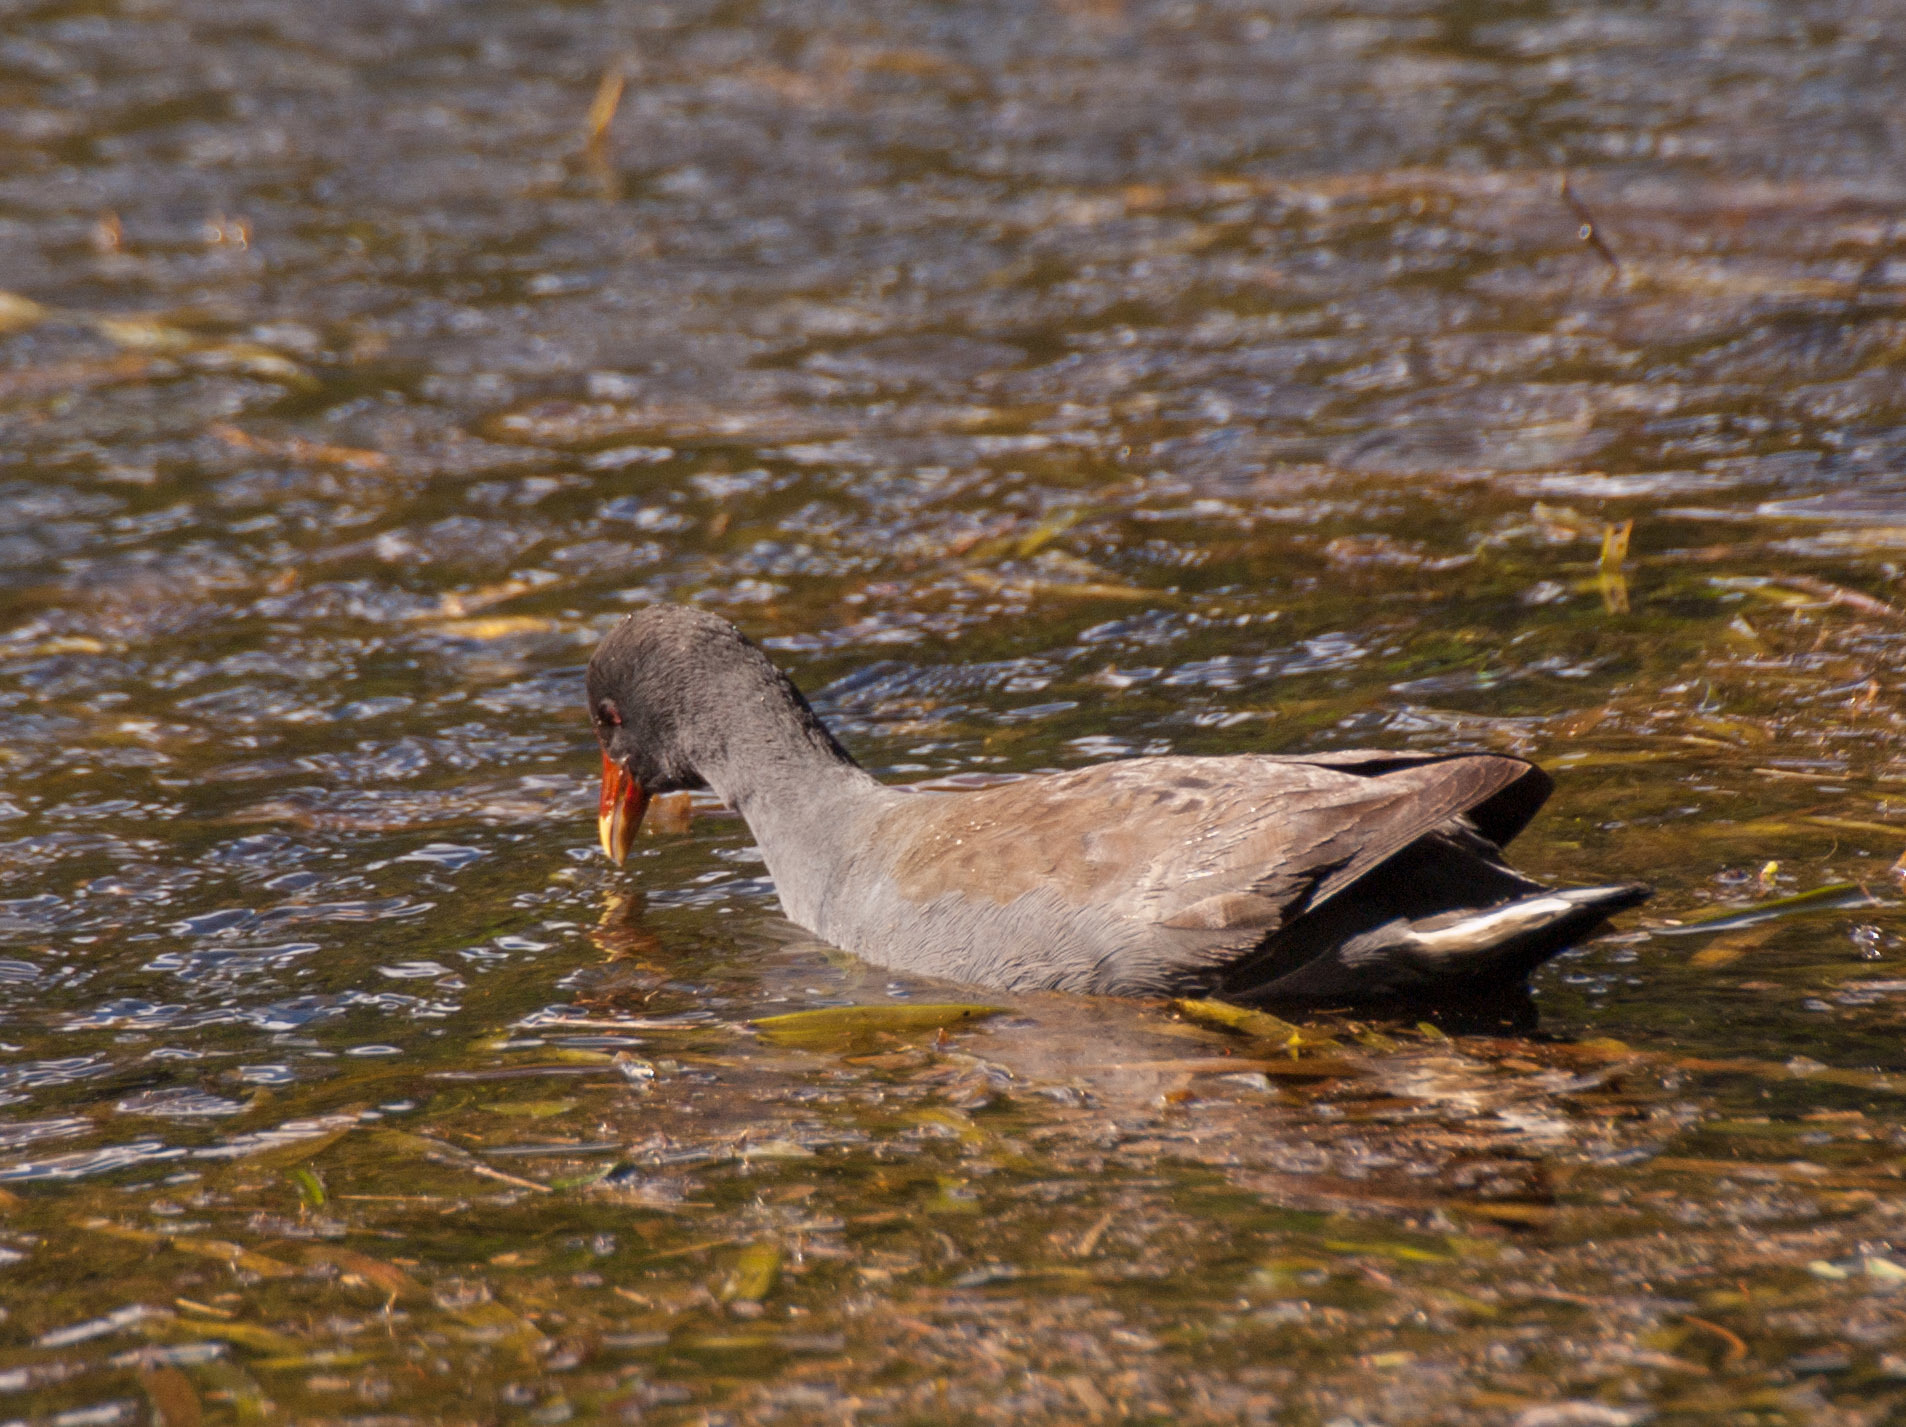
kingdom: Animalia
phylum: Chordata
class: Aves
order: Gruiformes
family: Rallidae
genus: Gallinula
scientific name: Gallinula tenebrosa
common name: Dusky moorhen
